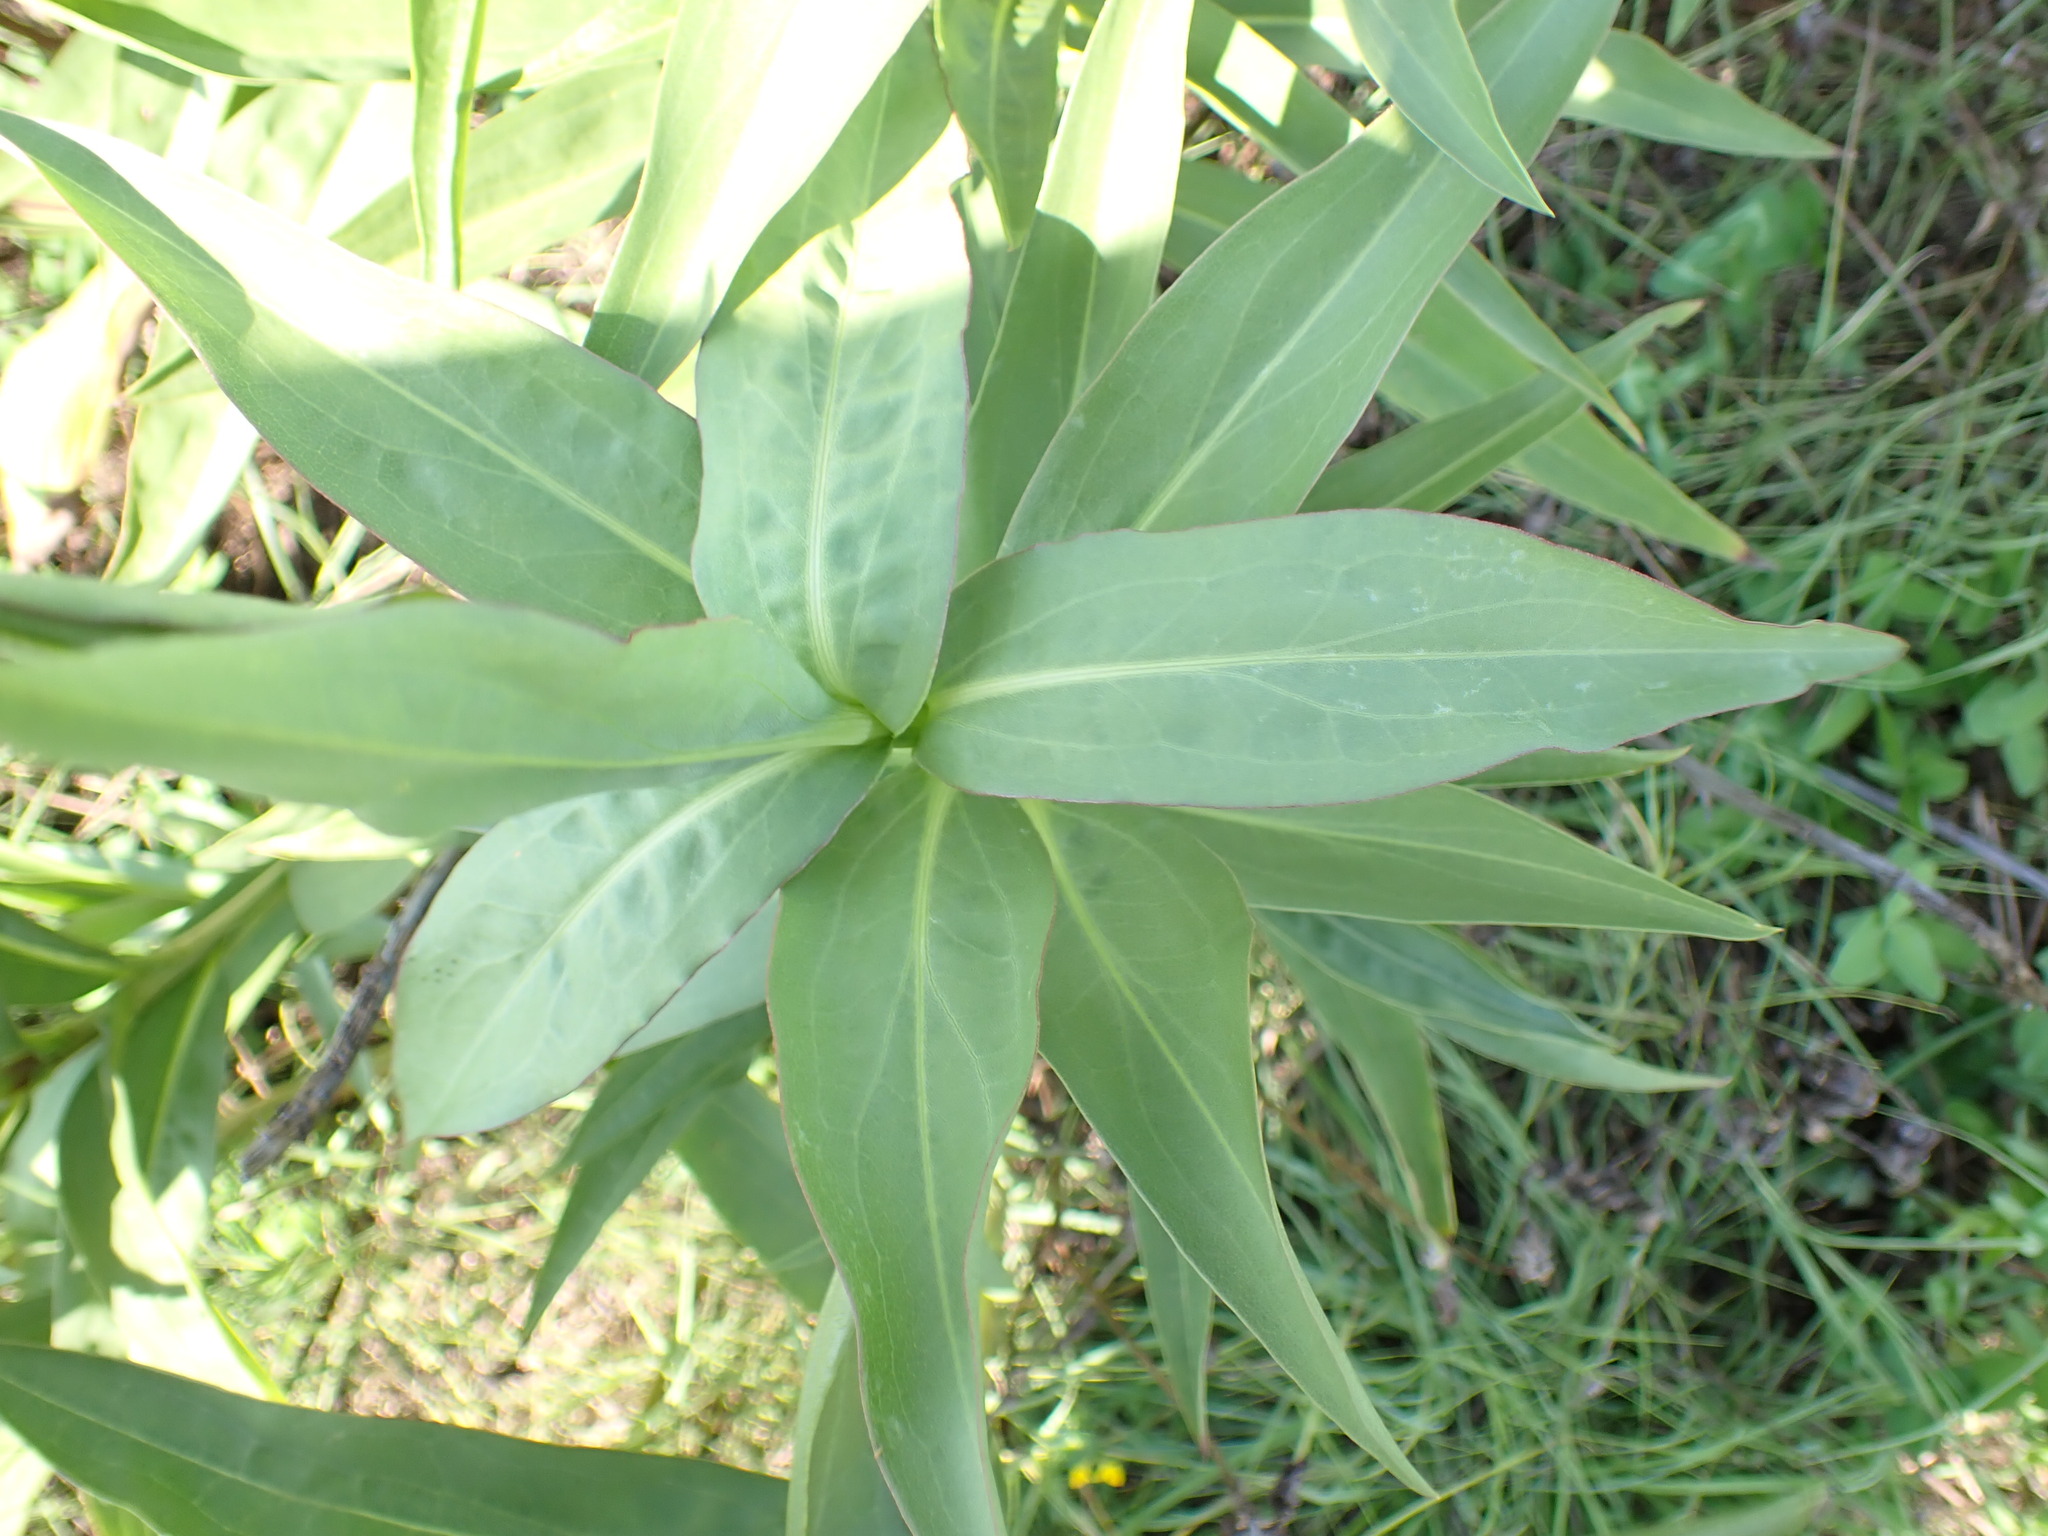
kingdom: Plantae
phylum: Tracheophyta
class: Magnoliopsida
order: Asterales
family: Asteraceae
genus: Solidago
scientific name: Solidago sempervirens
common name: Salt-marsh goldenrod
